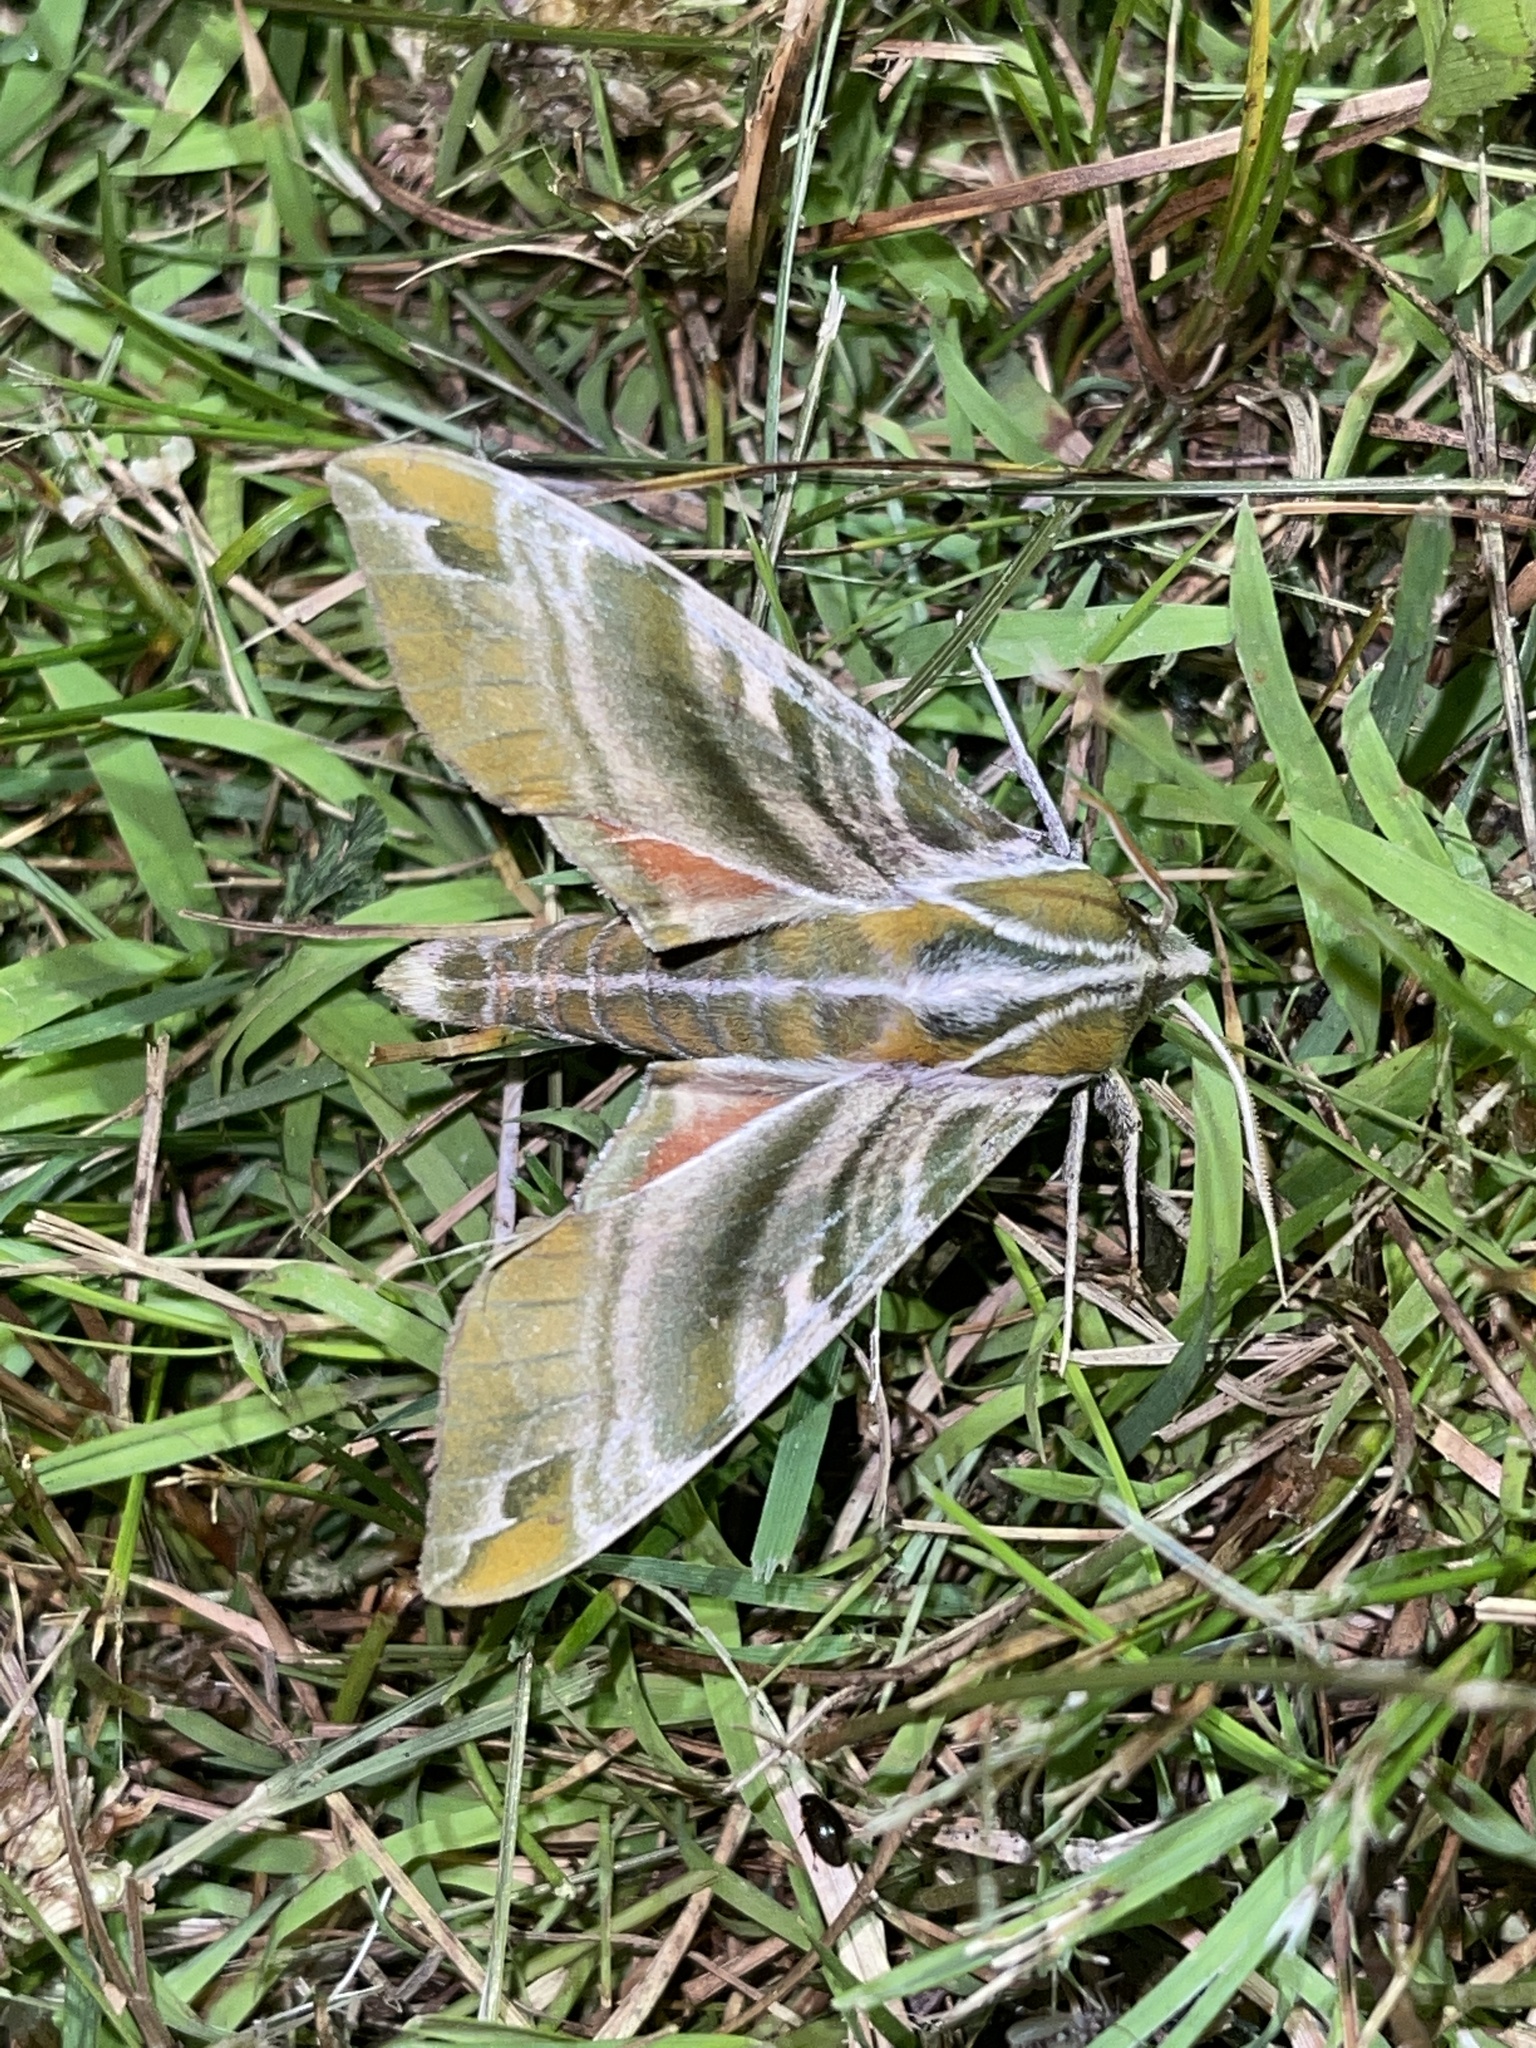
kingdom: Animalia
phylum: Arthropoda
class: Insecta
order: Lepidoptera
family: Sphingidae
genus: Darapsa
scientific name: Darapsa versicolor
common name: Hydrangea sphinx
